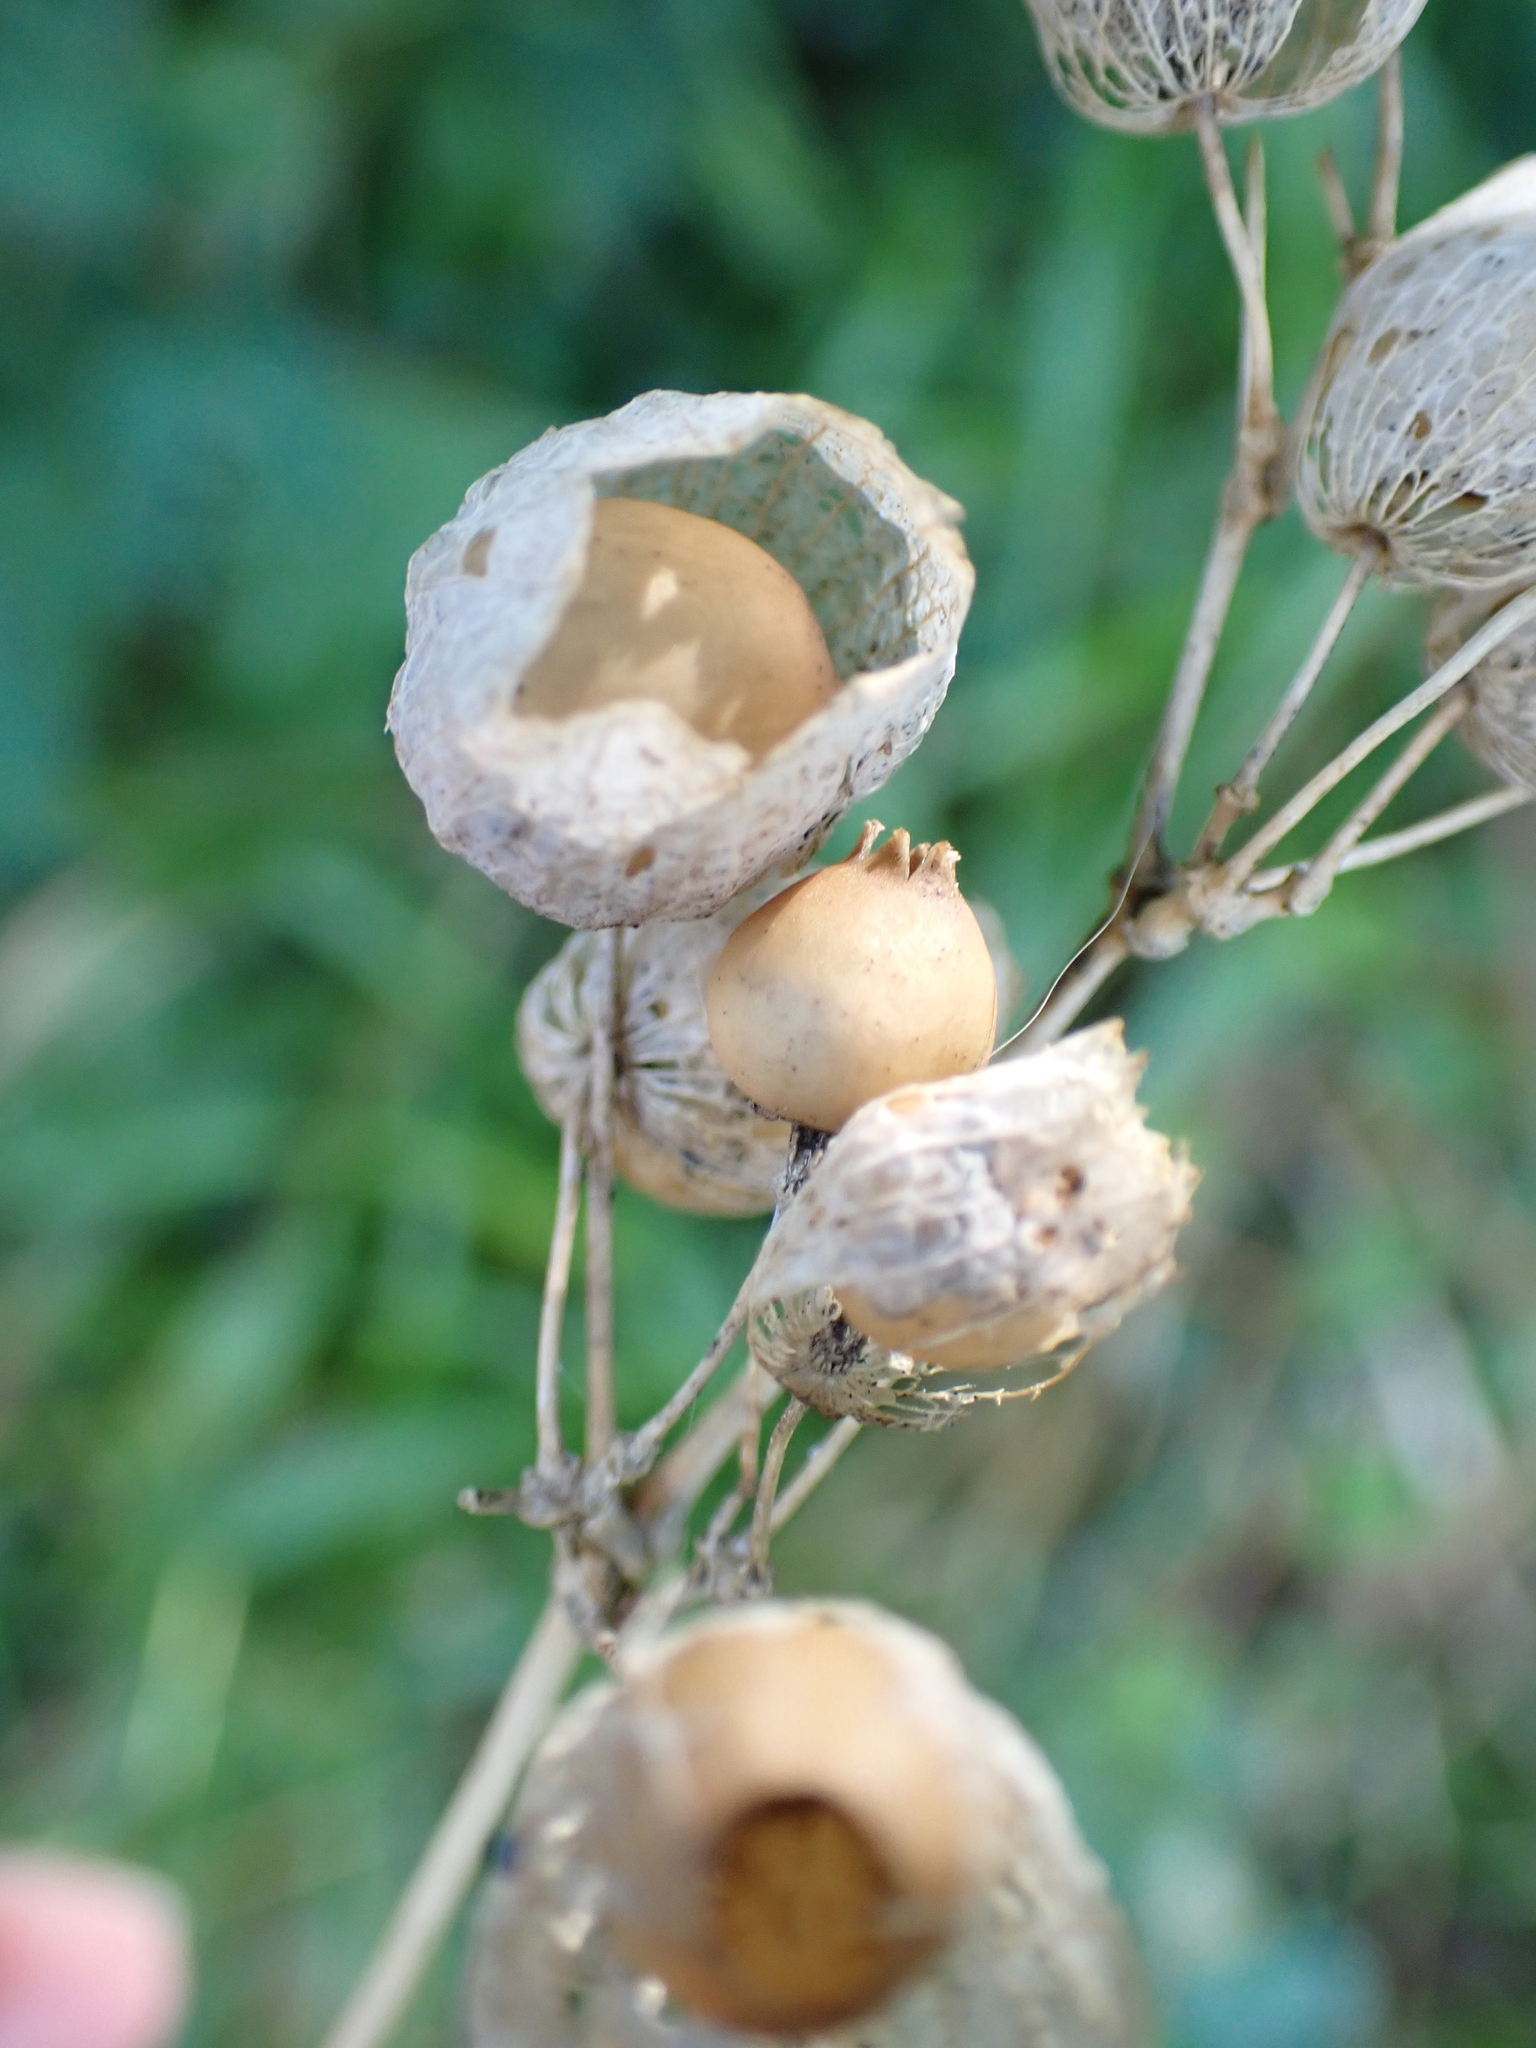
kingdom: Plantae
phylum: Tracheophyta
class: Magnoliopsida
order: Caryophyllales
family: Caryophyllaceae
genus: Silene
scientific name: Silene vulgaris
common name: Bladder campion
